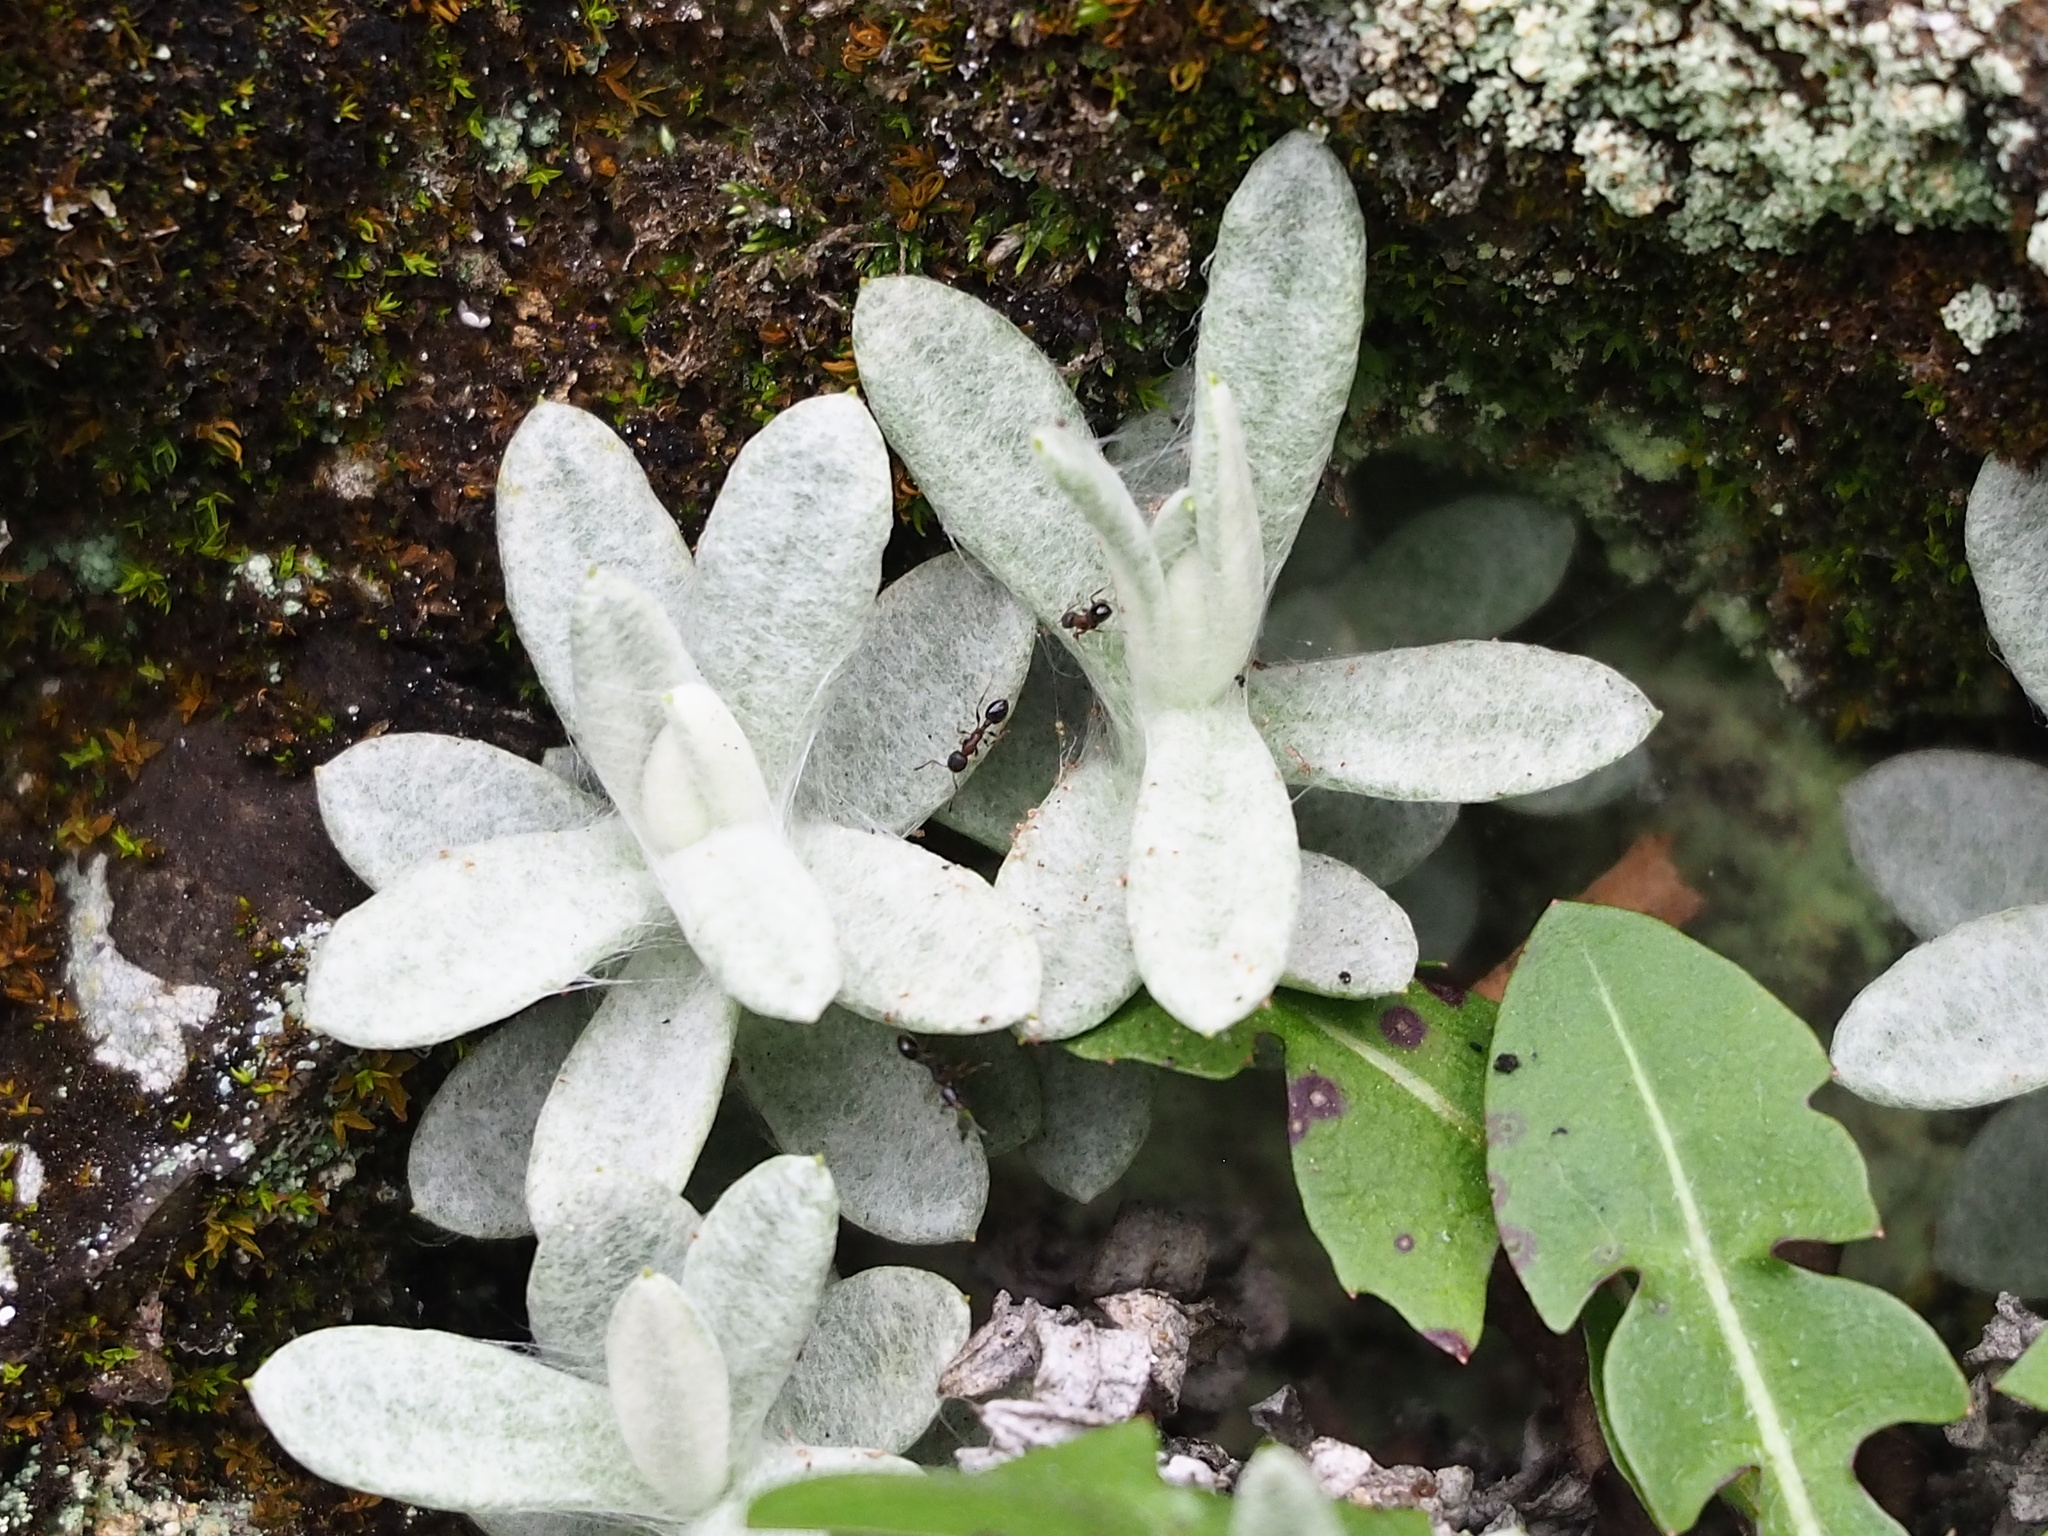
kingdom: Plantae
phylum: Tracheophyta
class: Magnoliopsida
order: Asterales
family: Asteraceae
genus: Anaphalis
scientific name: Anaphalis morrisonicola
